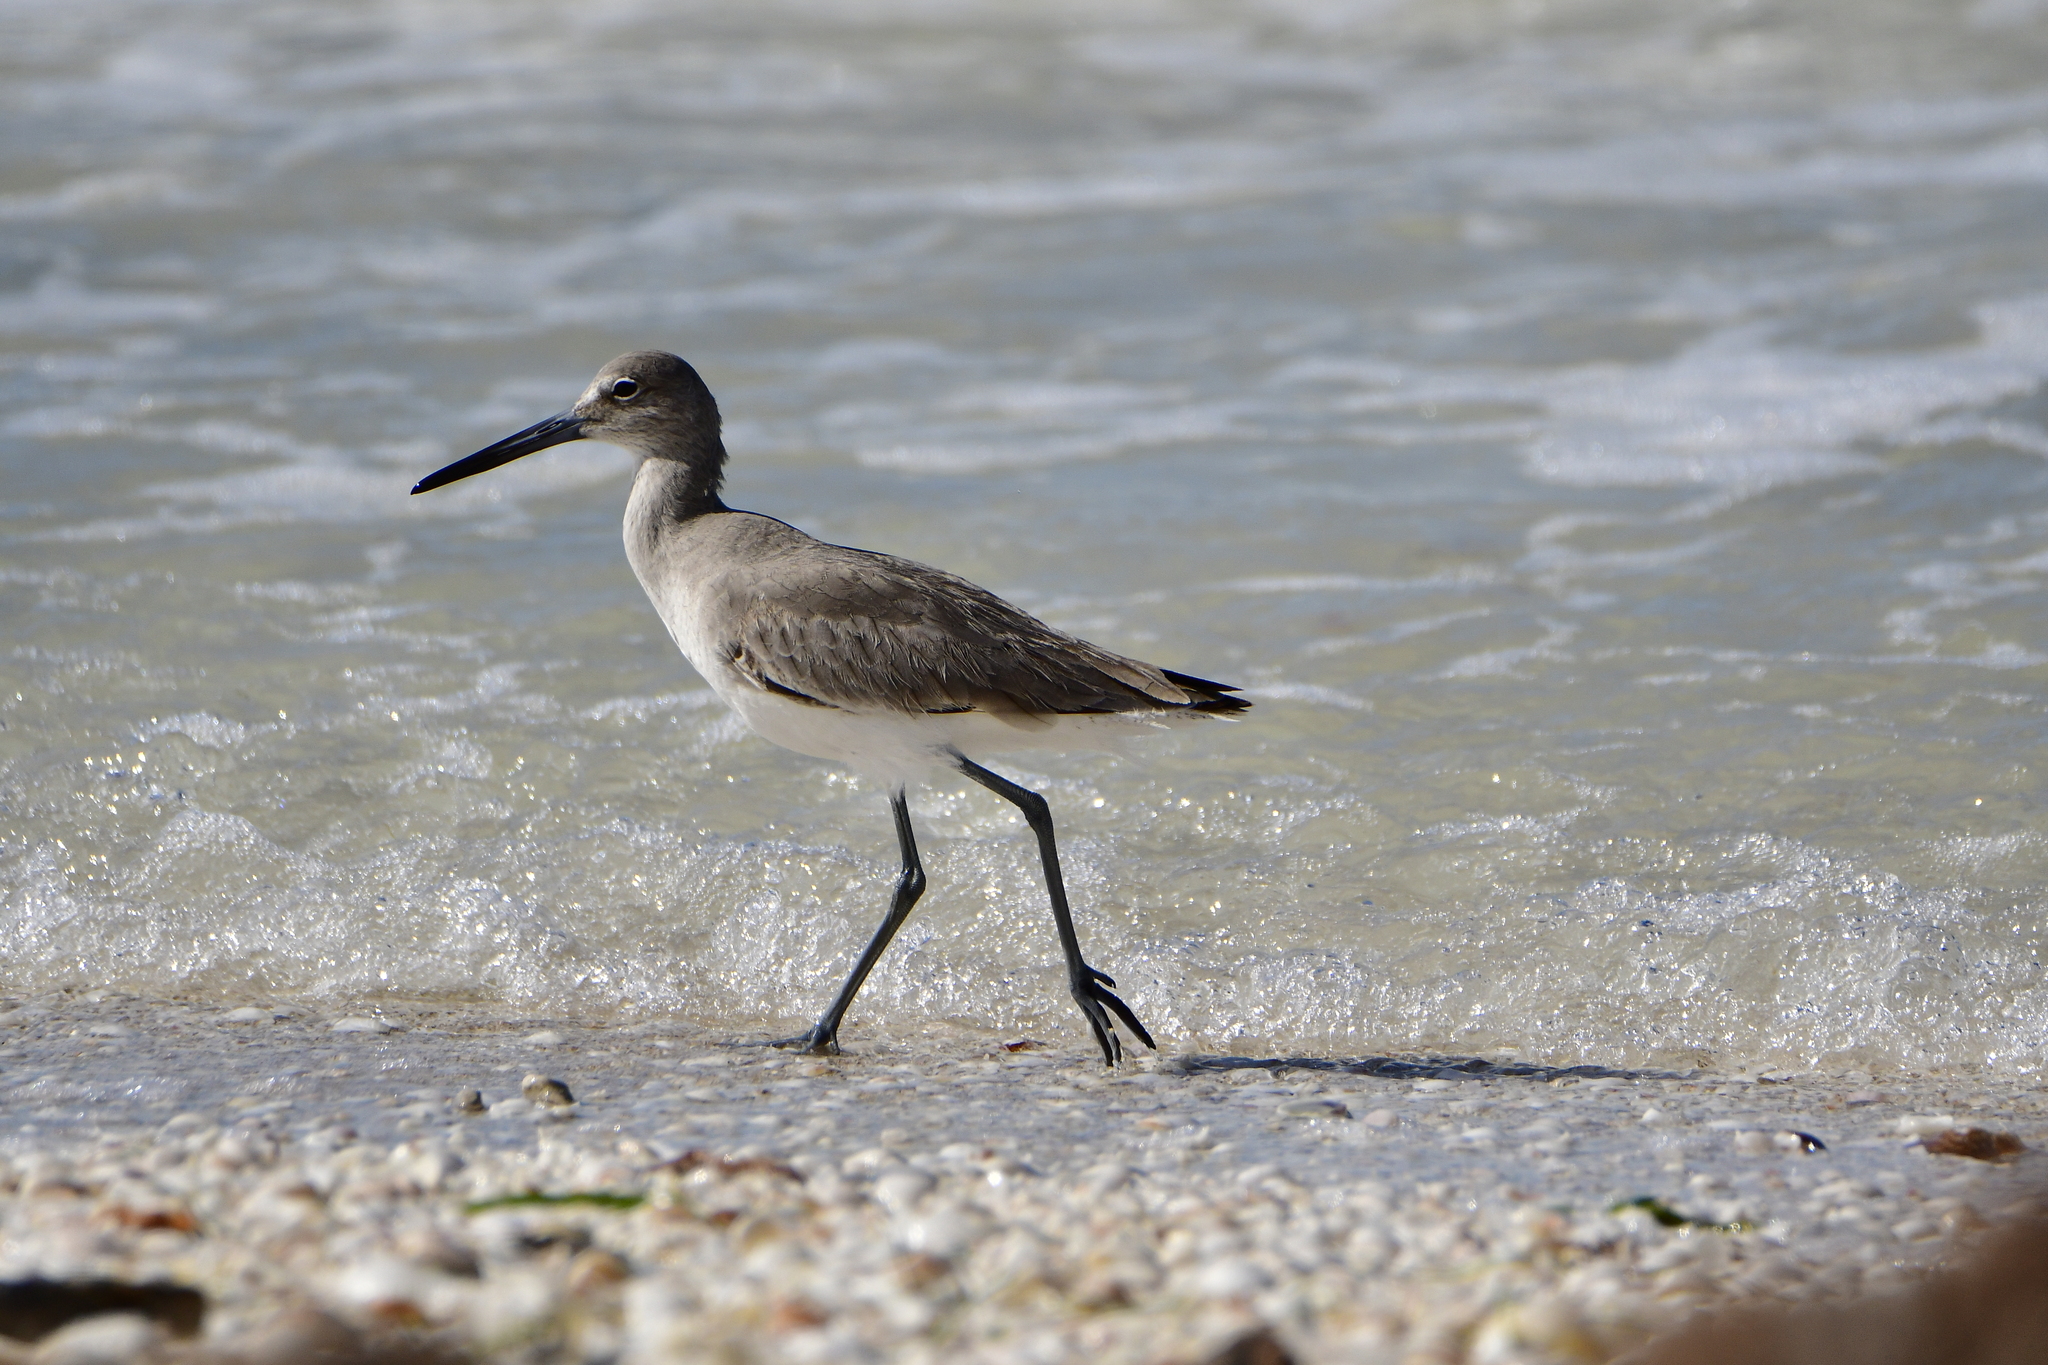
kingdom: Animalia
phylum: Chordata
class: Aves
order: Charadriiformes
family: Scolopacidae
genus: Tringa
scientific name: Tringa semipalmata
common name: Willet
